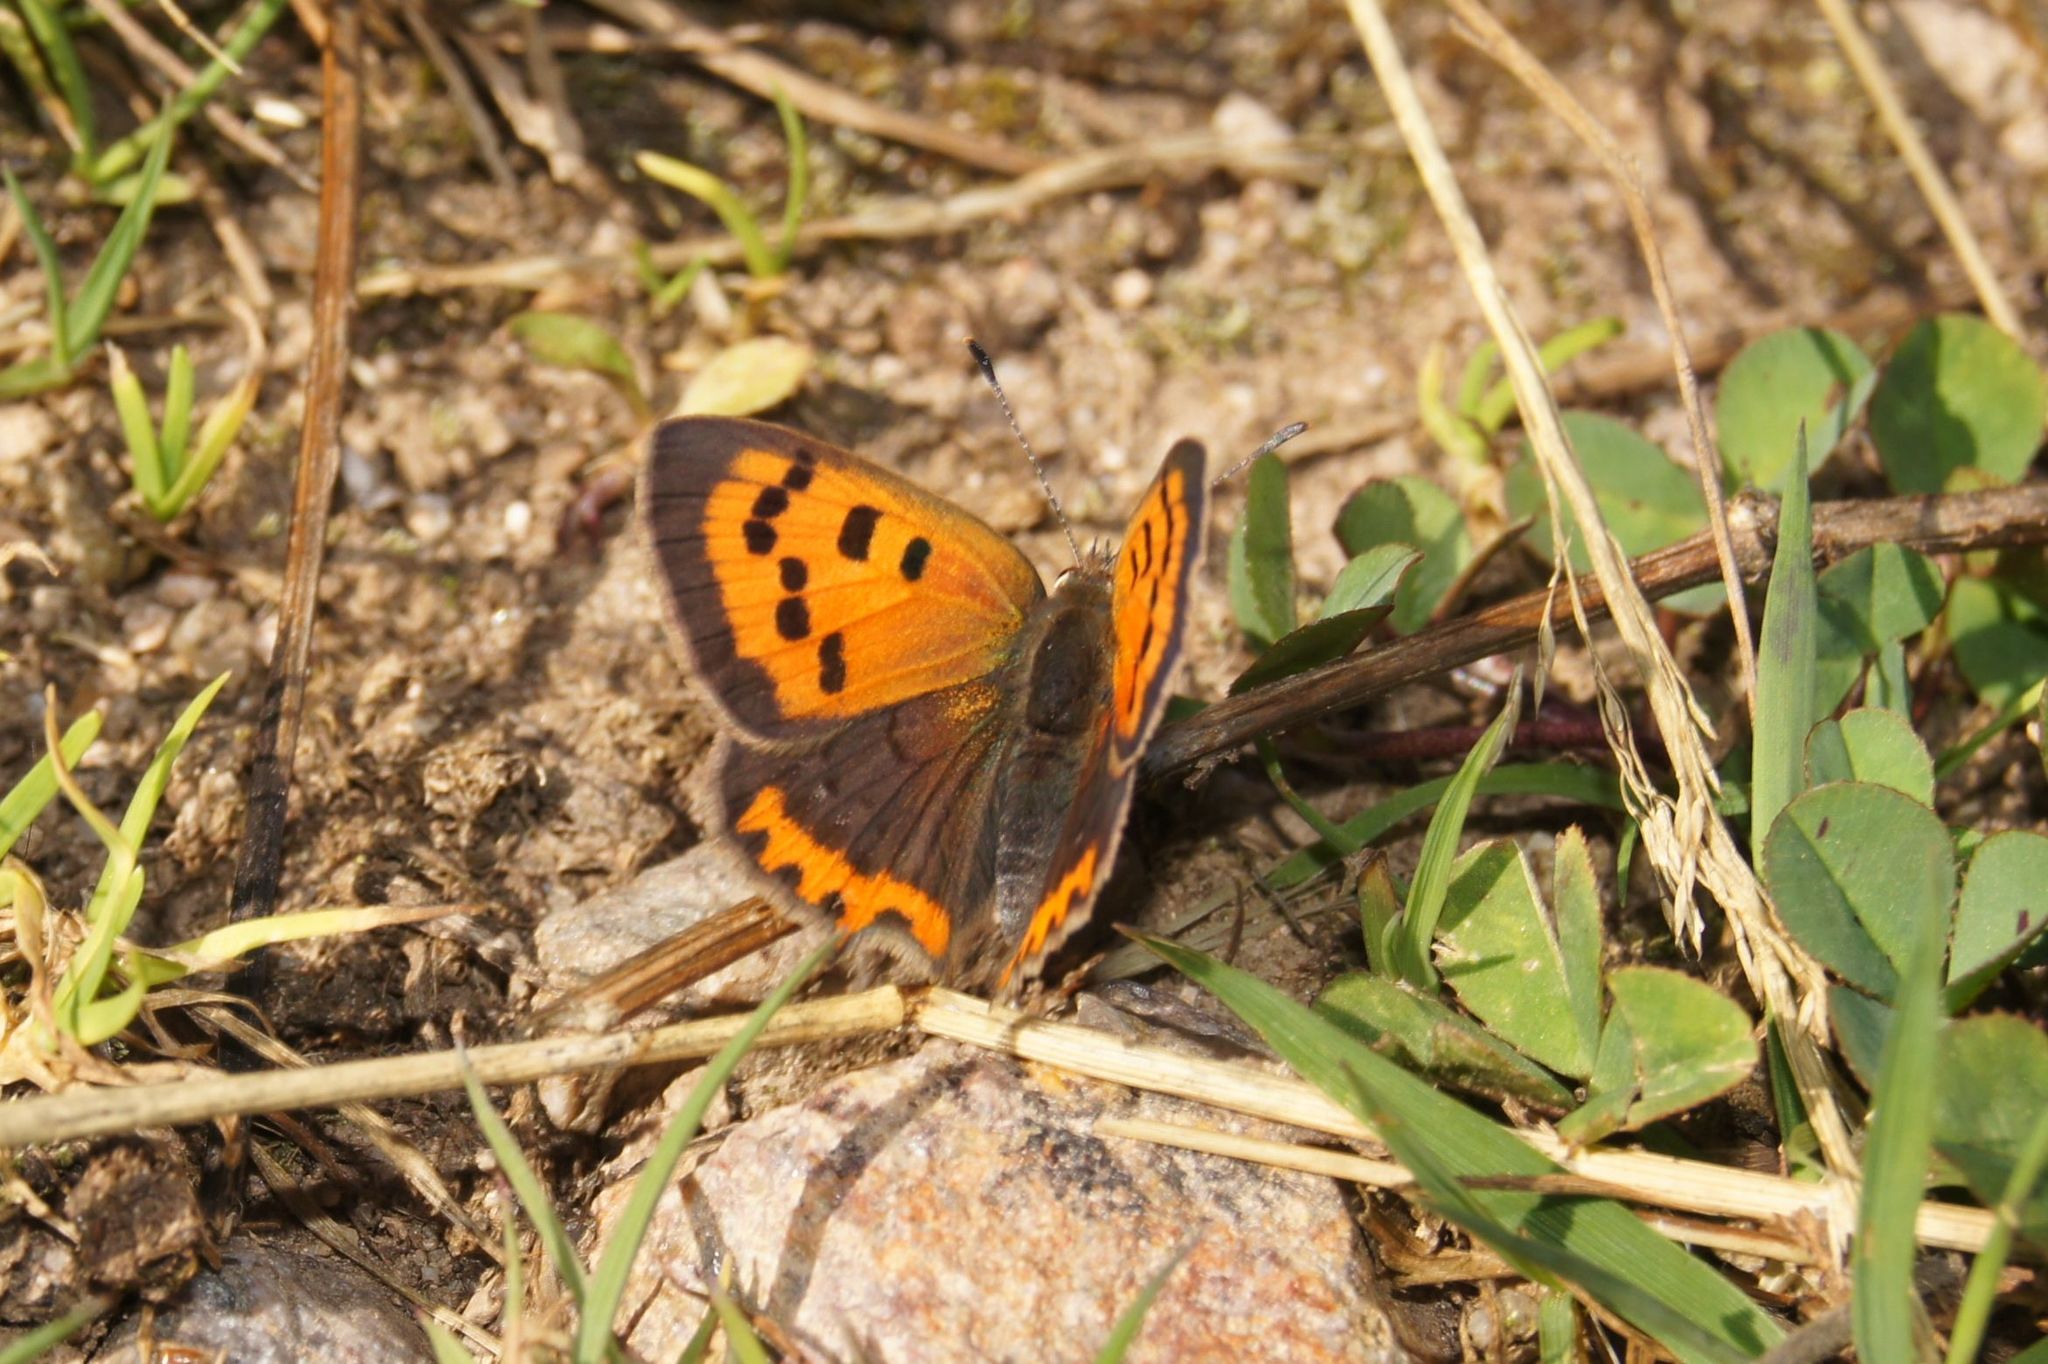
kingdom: Animalia
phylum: Arthropoda
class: Insecta
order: Lepidoptera
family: Lycaenidae
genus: Lycaena
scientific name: Lycaena phlaeas
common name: Small copper
